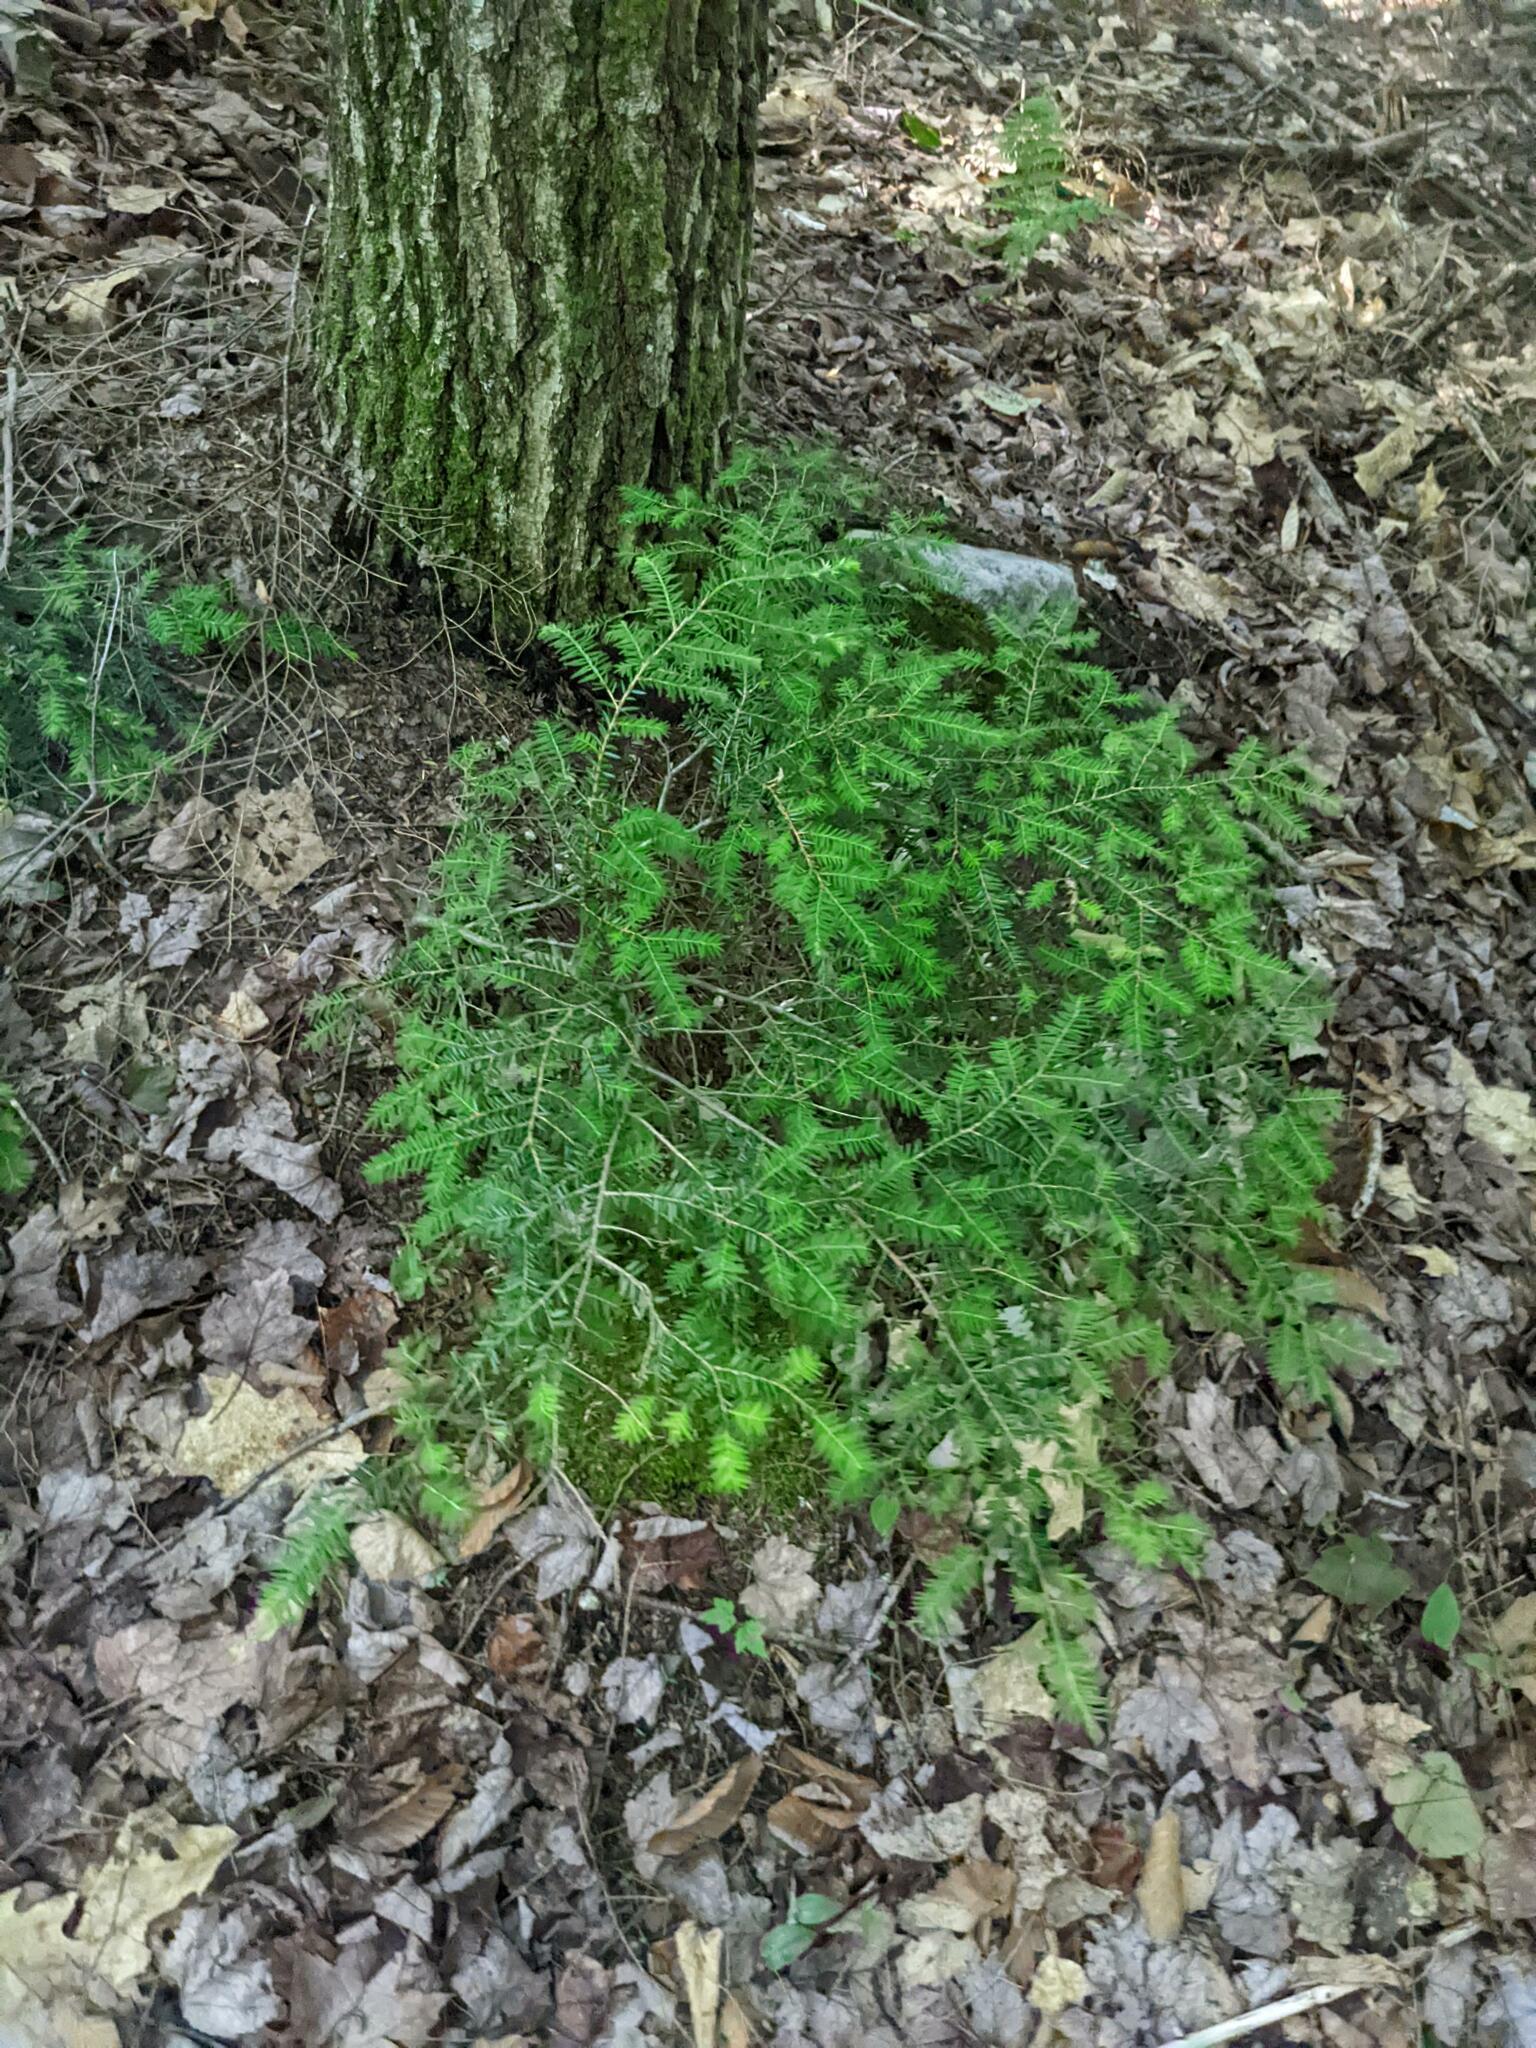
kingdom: Plantae
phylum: Tracheophyta
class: Pinopsida
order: Pinales
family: Pinaceae
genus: Tsuga
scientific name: Tsuga canadensis
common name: Eastern hemlock
